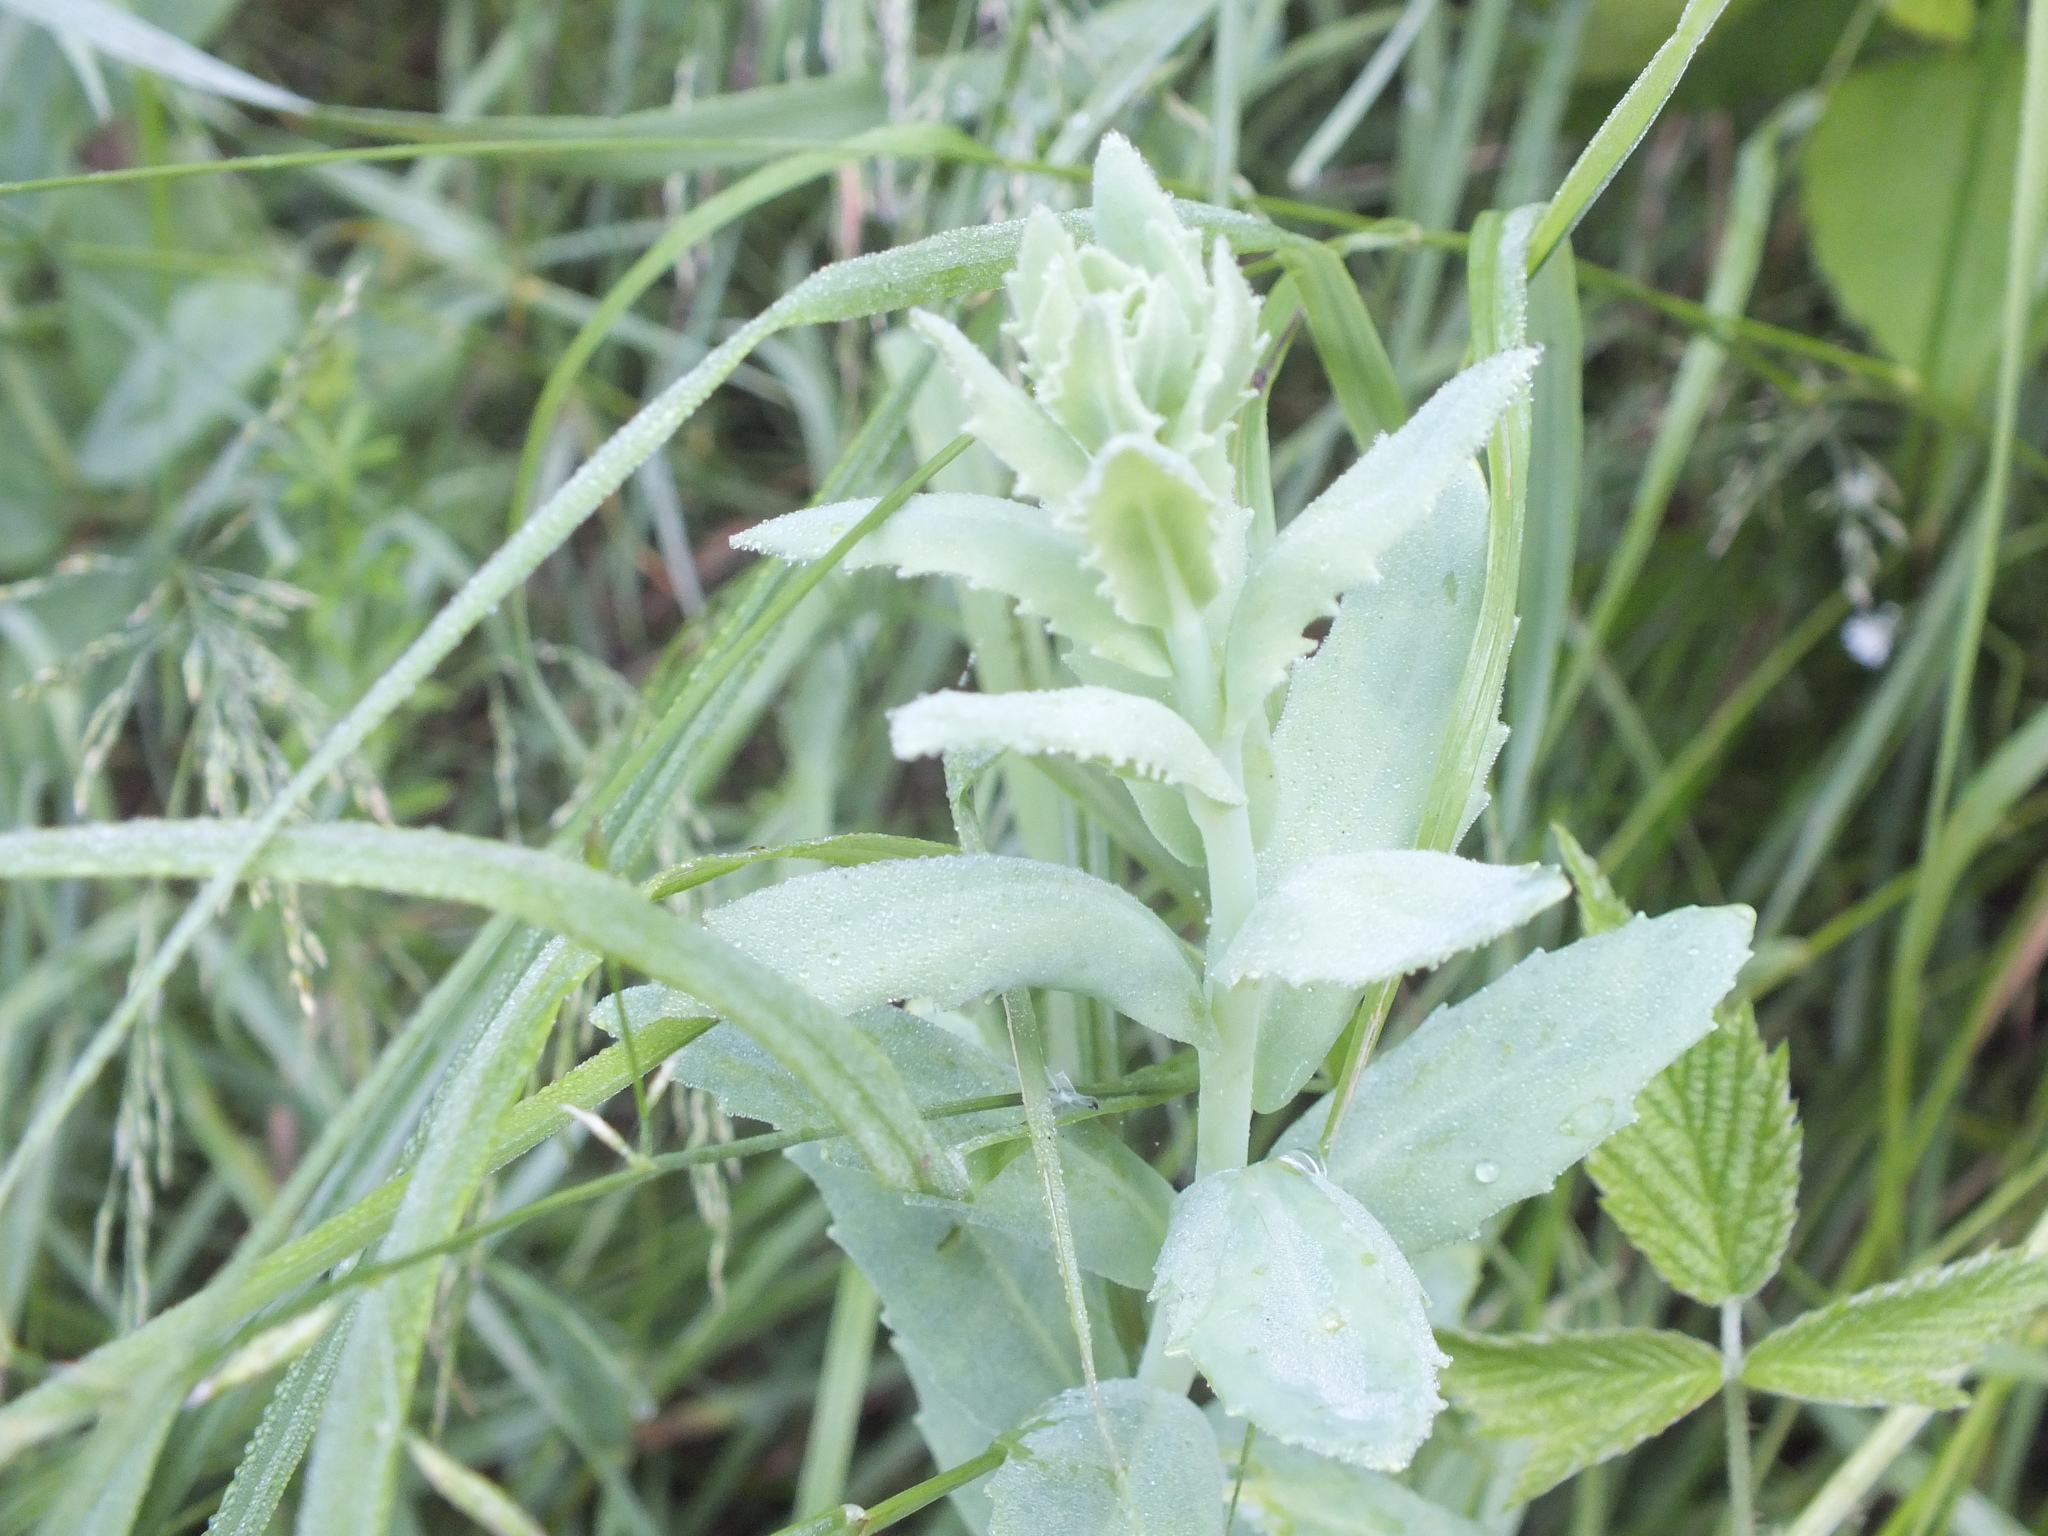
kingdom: Plantae
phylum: Tracheophyta
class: Magnoliopsida
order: Saxifragales
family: Crassulaceae
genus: Hylotelephium
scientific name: Hylotelephium telephium
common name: Live-forever
